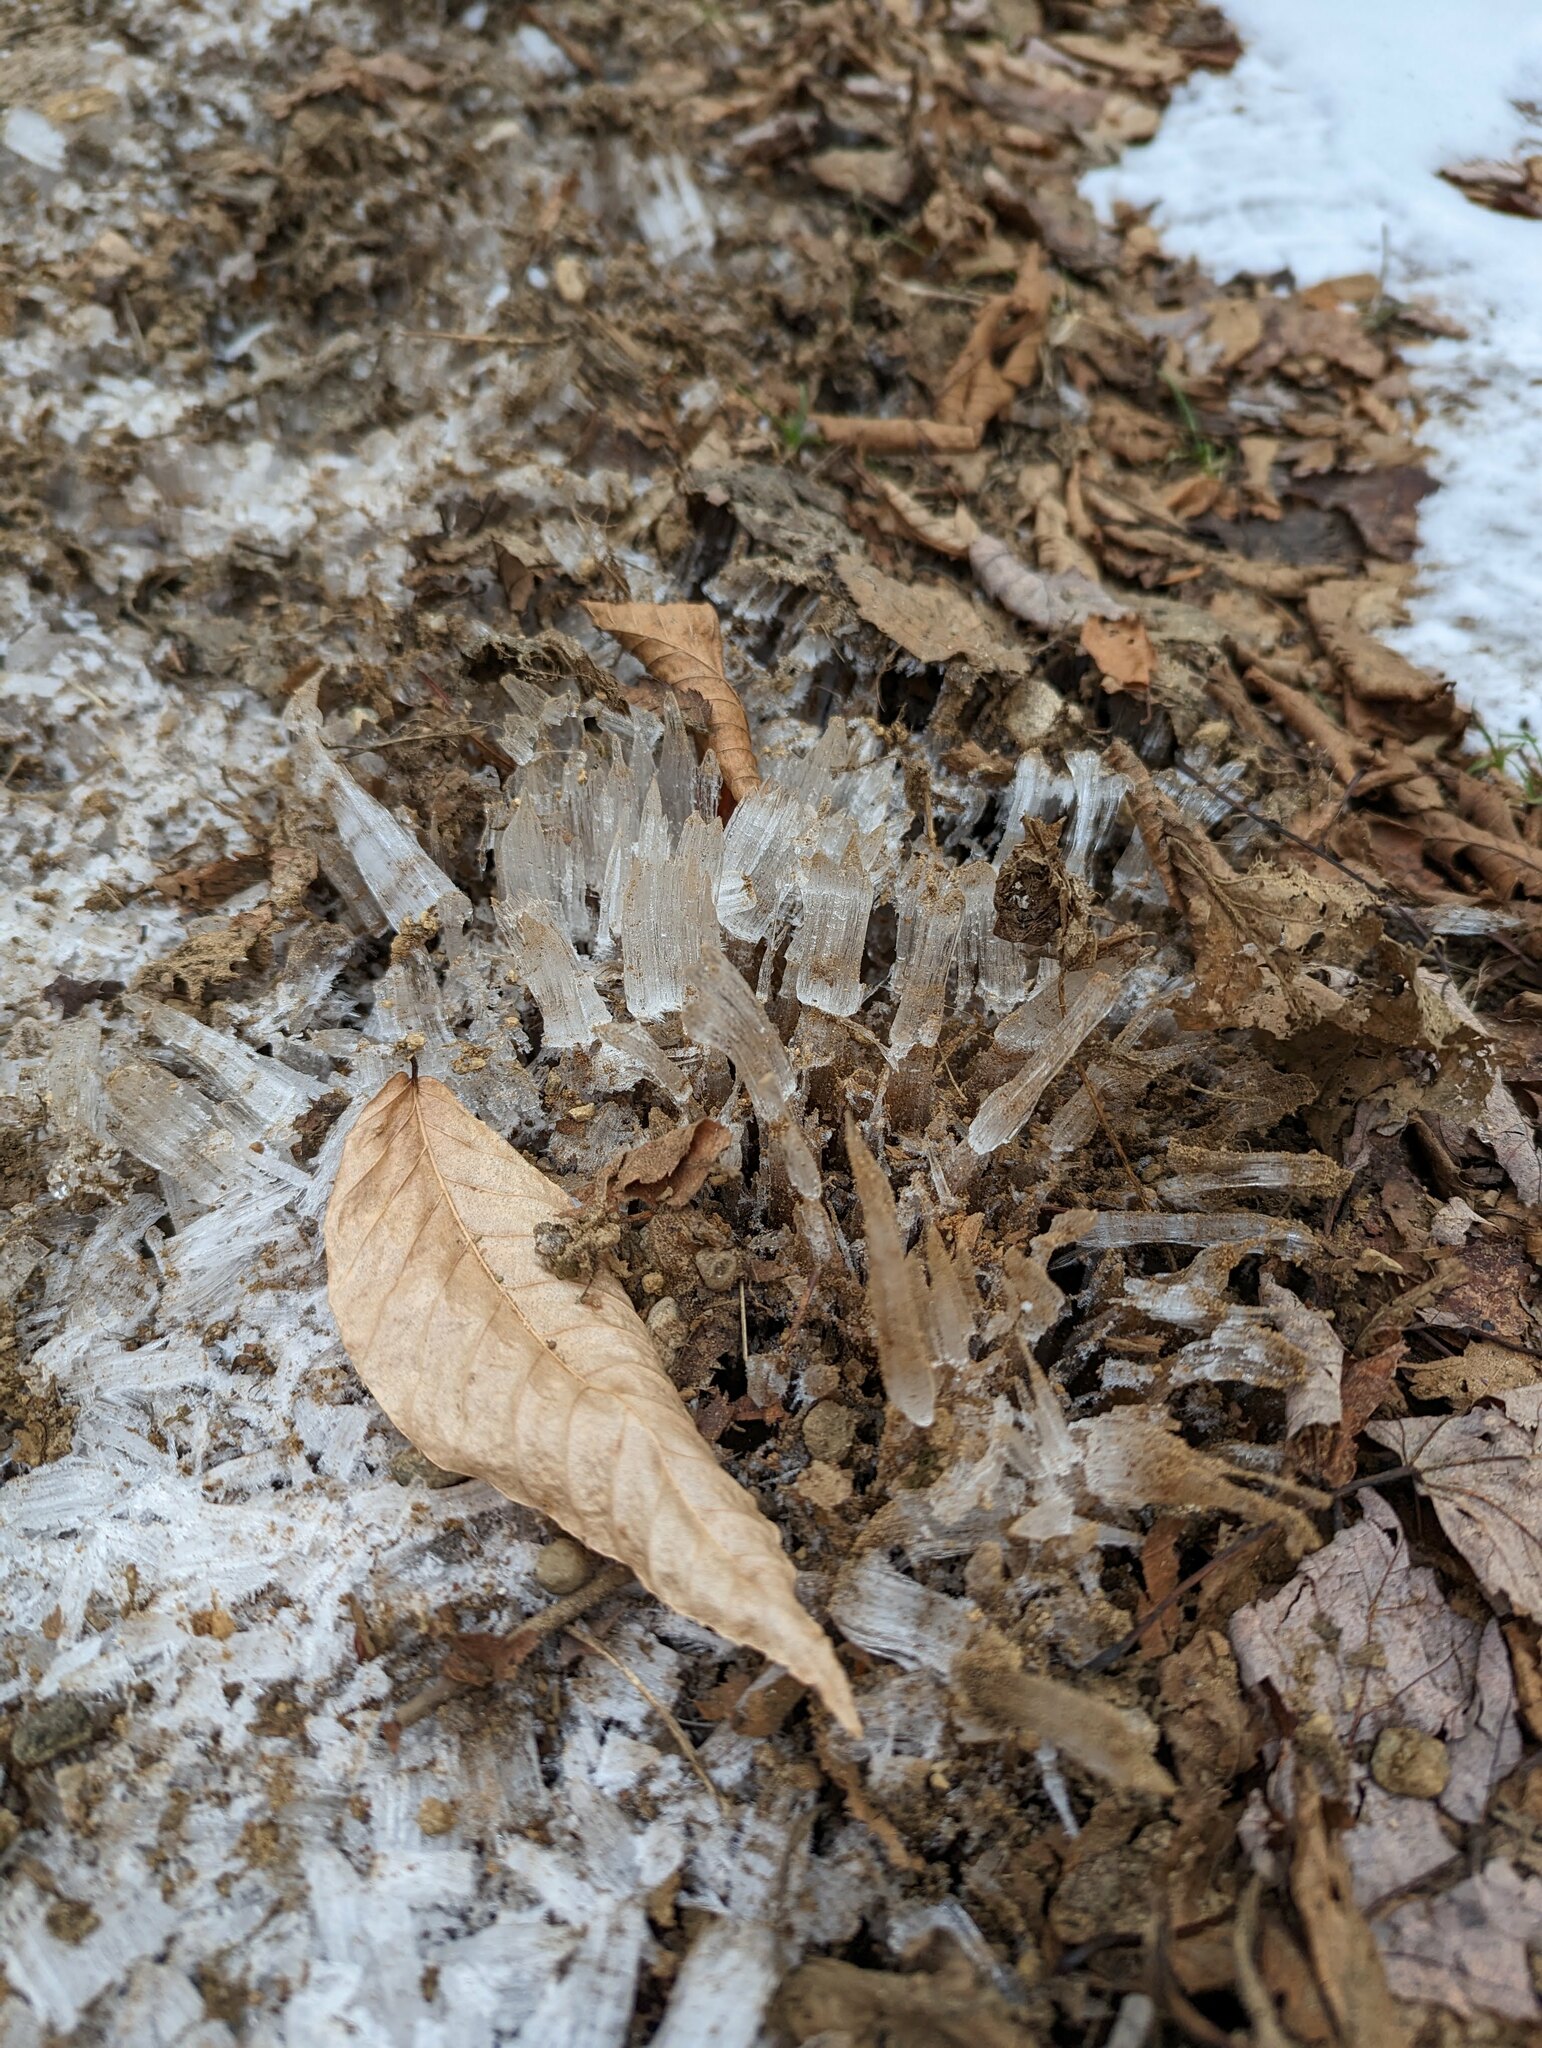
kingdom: Plantae
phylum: Tracheophyta
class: Magnoliopsida
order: Fagales
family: Fagaceae
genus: Fagus
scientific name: Fagus grandifolia
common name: American beech
